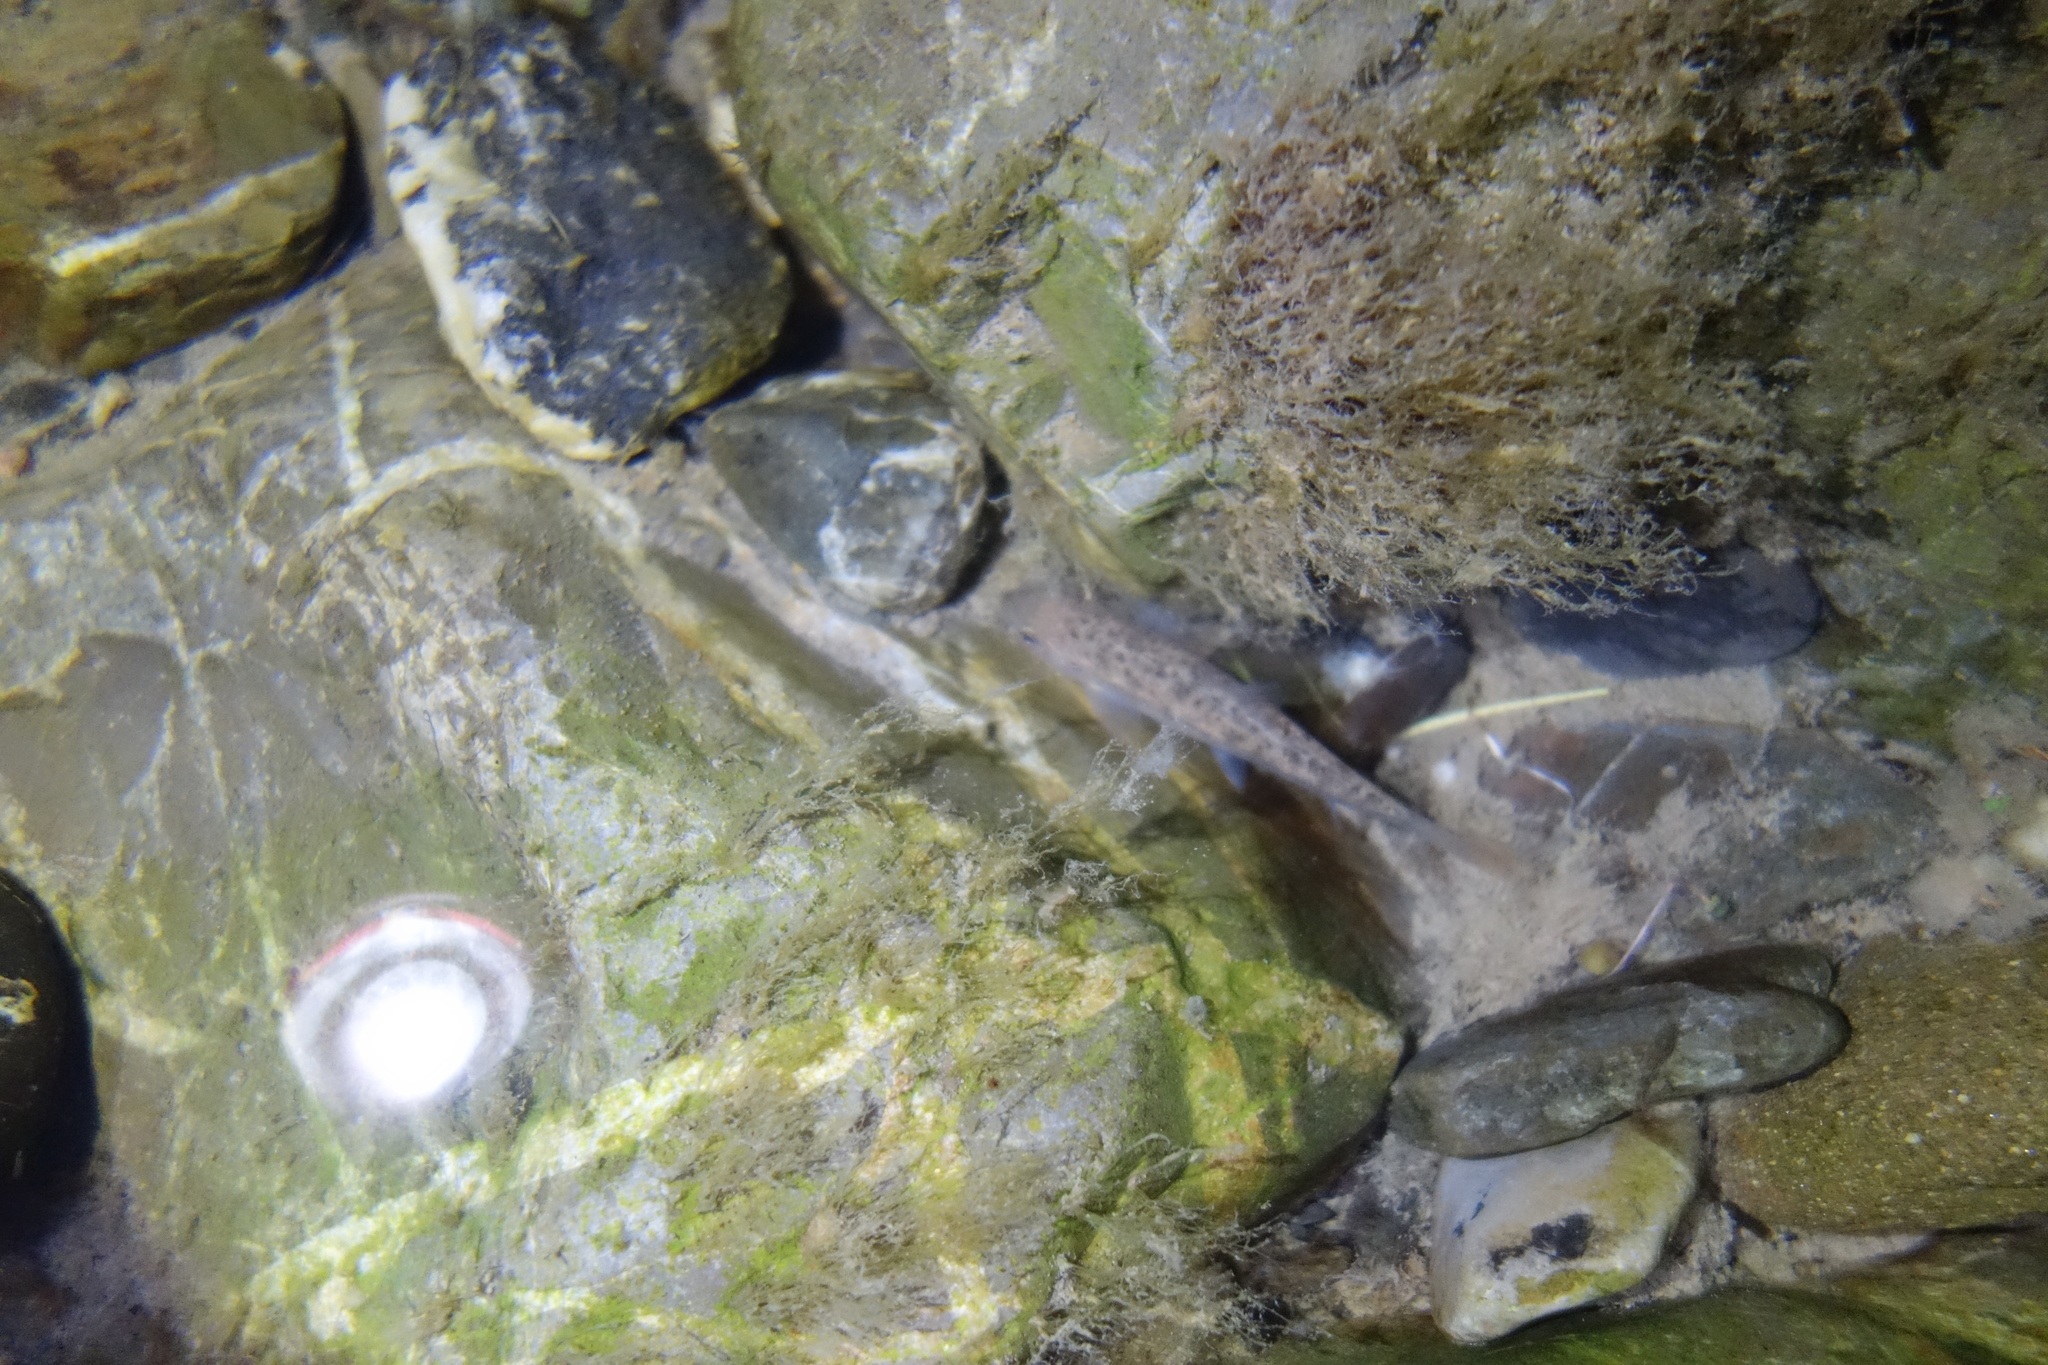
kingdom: Animalia
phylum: Chordata
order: Cypriniformes
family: Cyprinidae
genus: Barbus
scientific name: Barbus tyberinus
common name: Horse barbel
